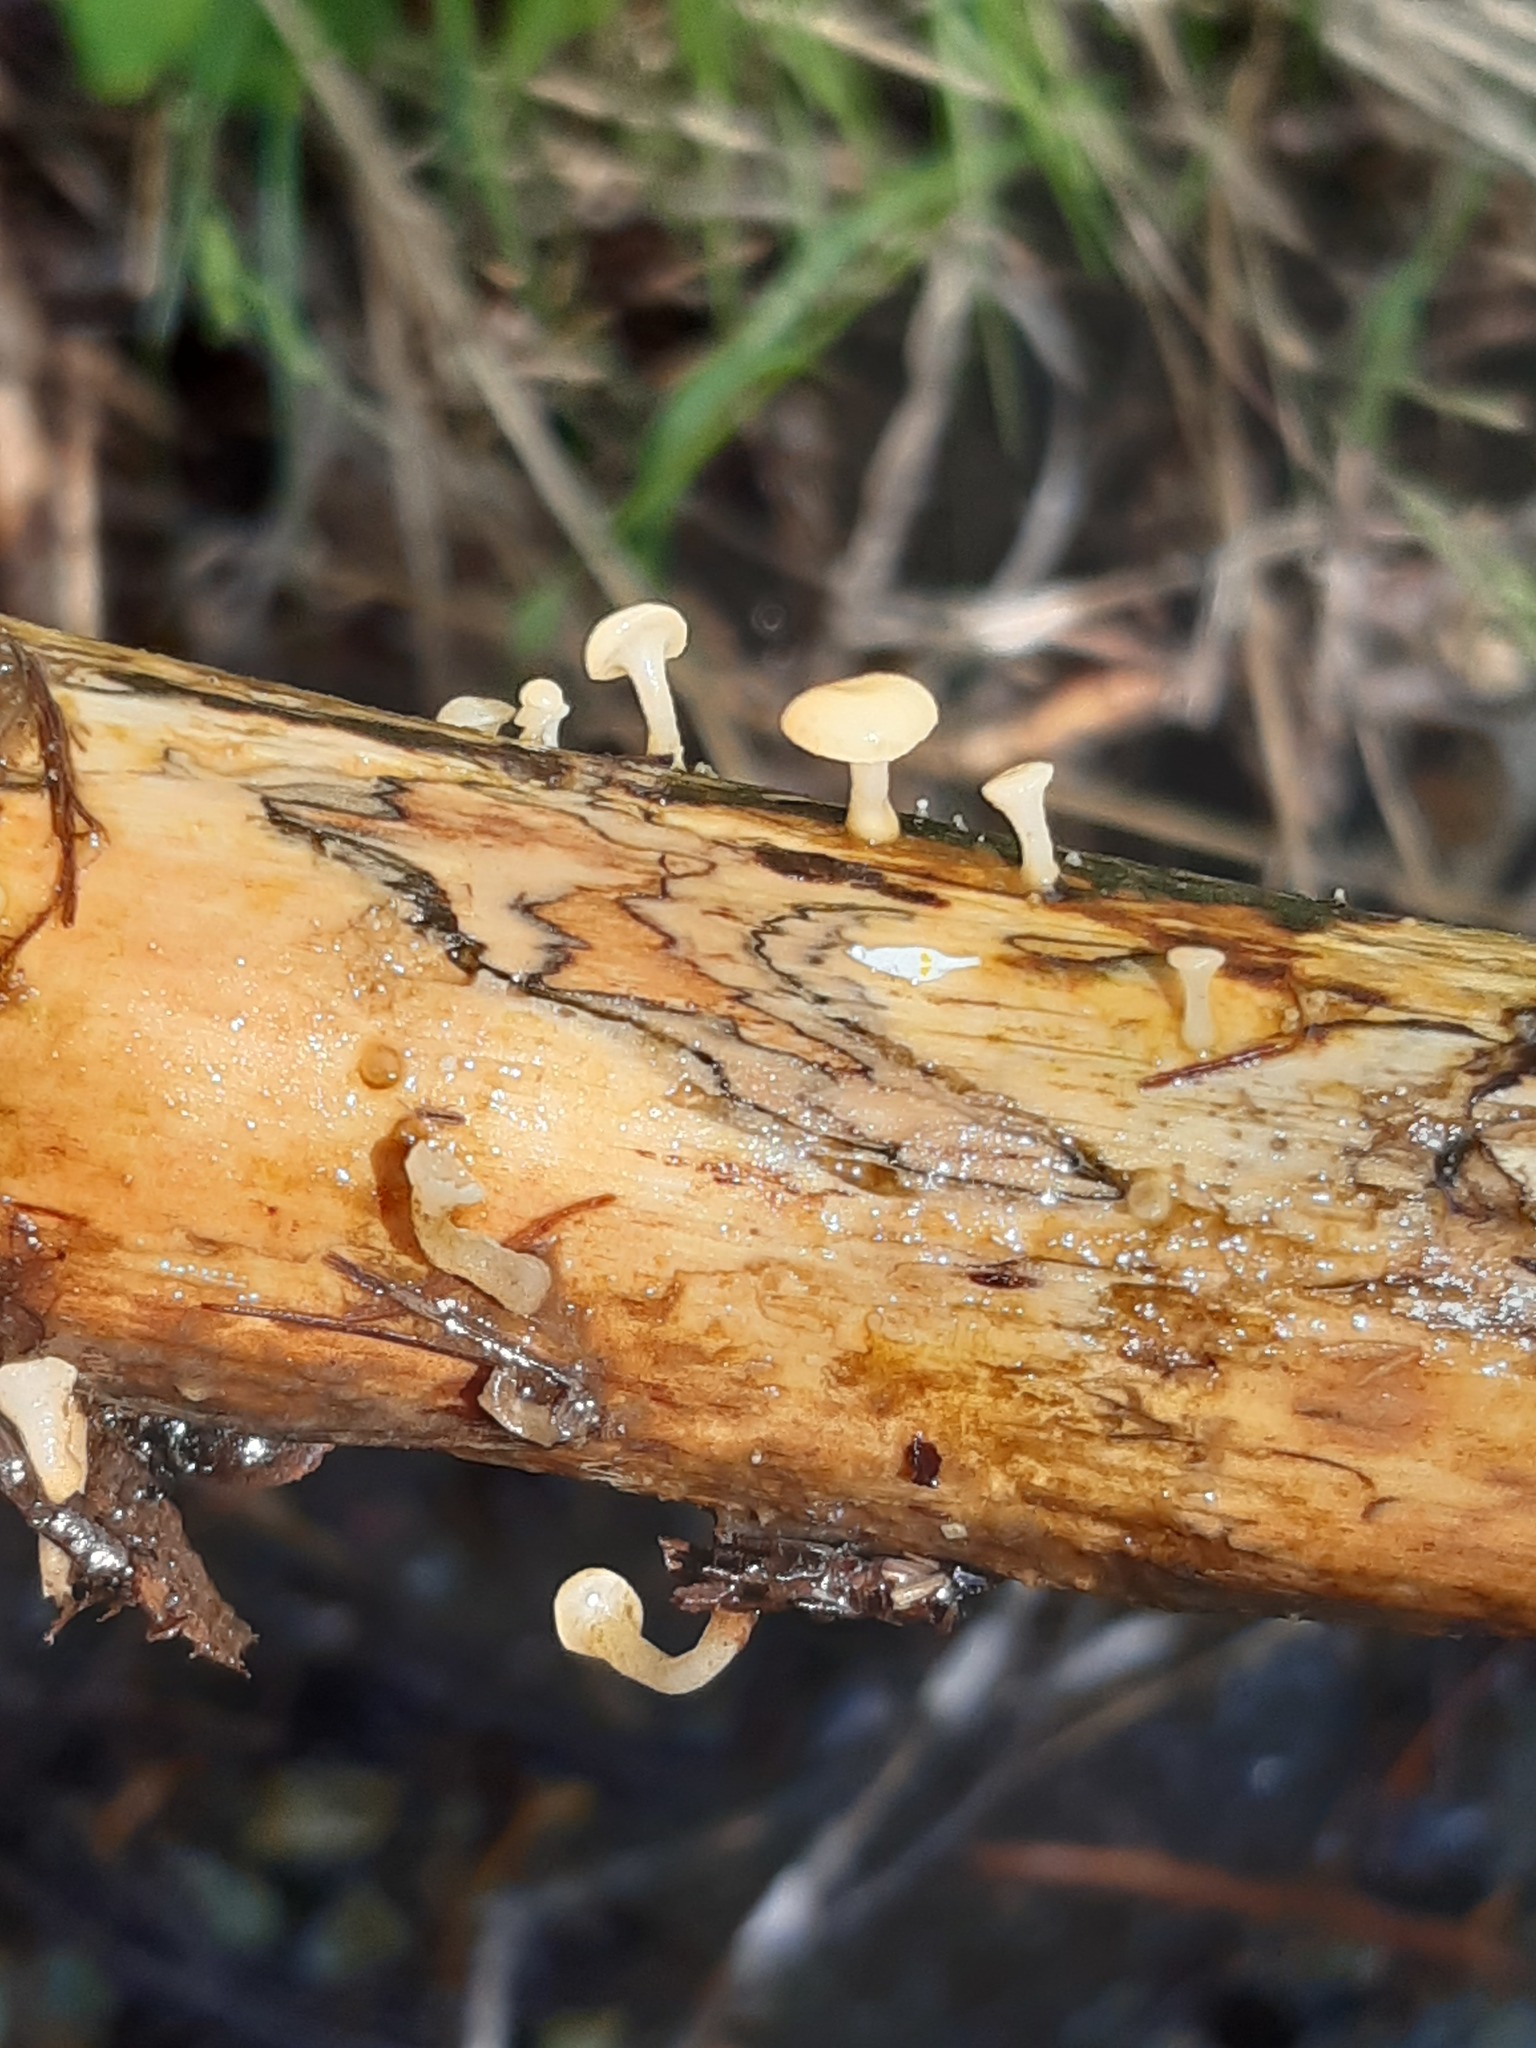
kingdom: Fungi
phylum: Ascomycota
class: Leotiomycetes
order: Helotiales
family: Tricladiaceae
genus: Cudoniella
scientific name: Cudoniella clavus
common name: Spring pin
